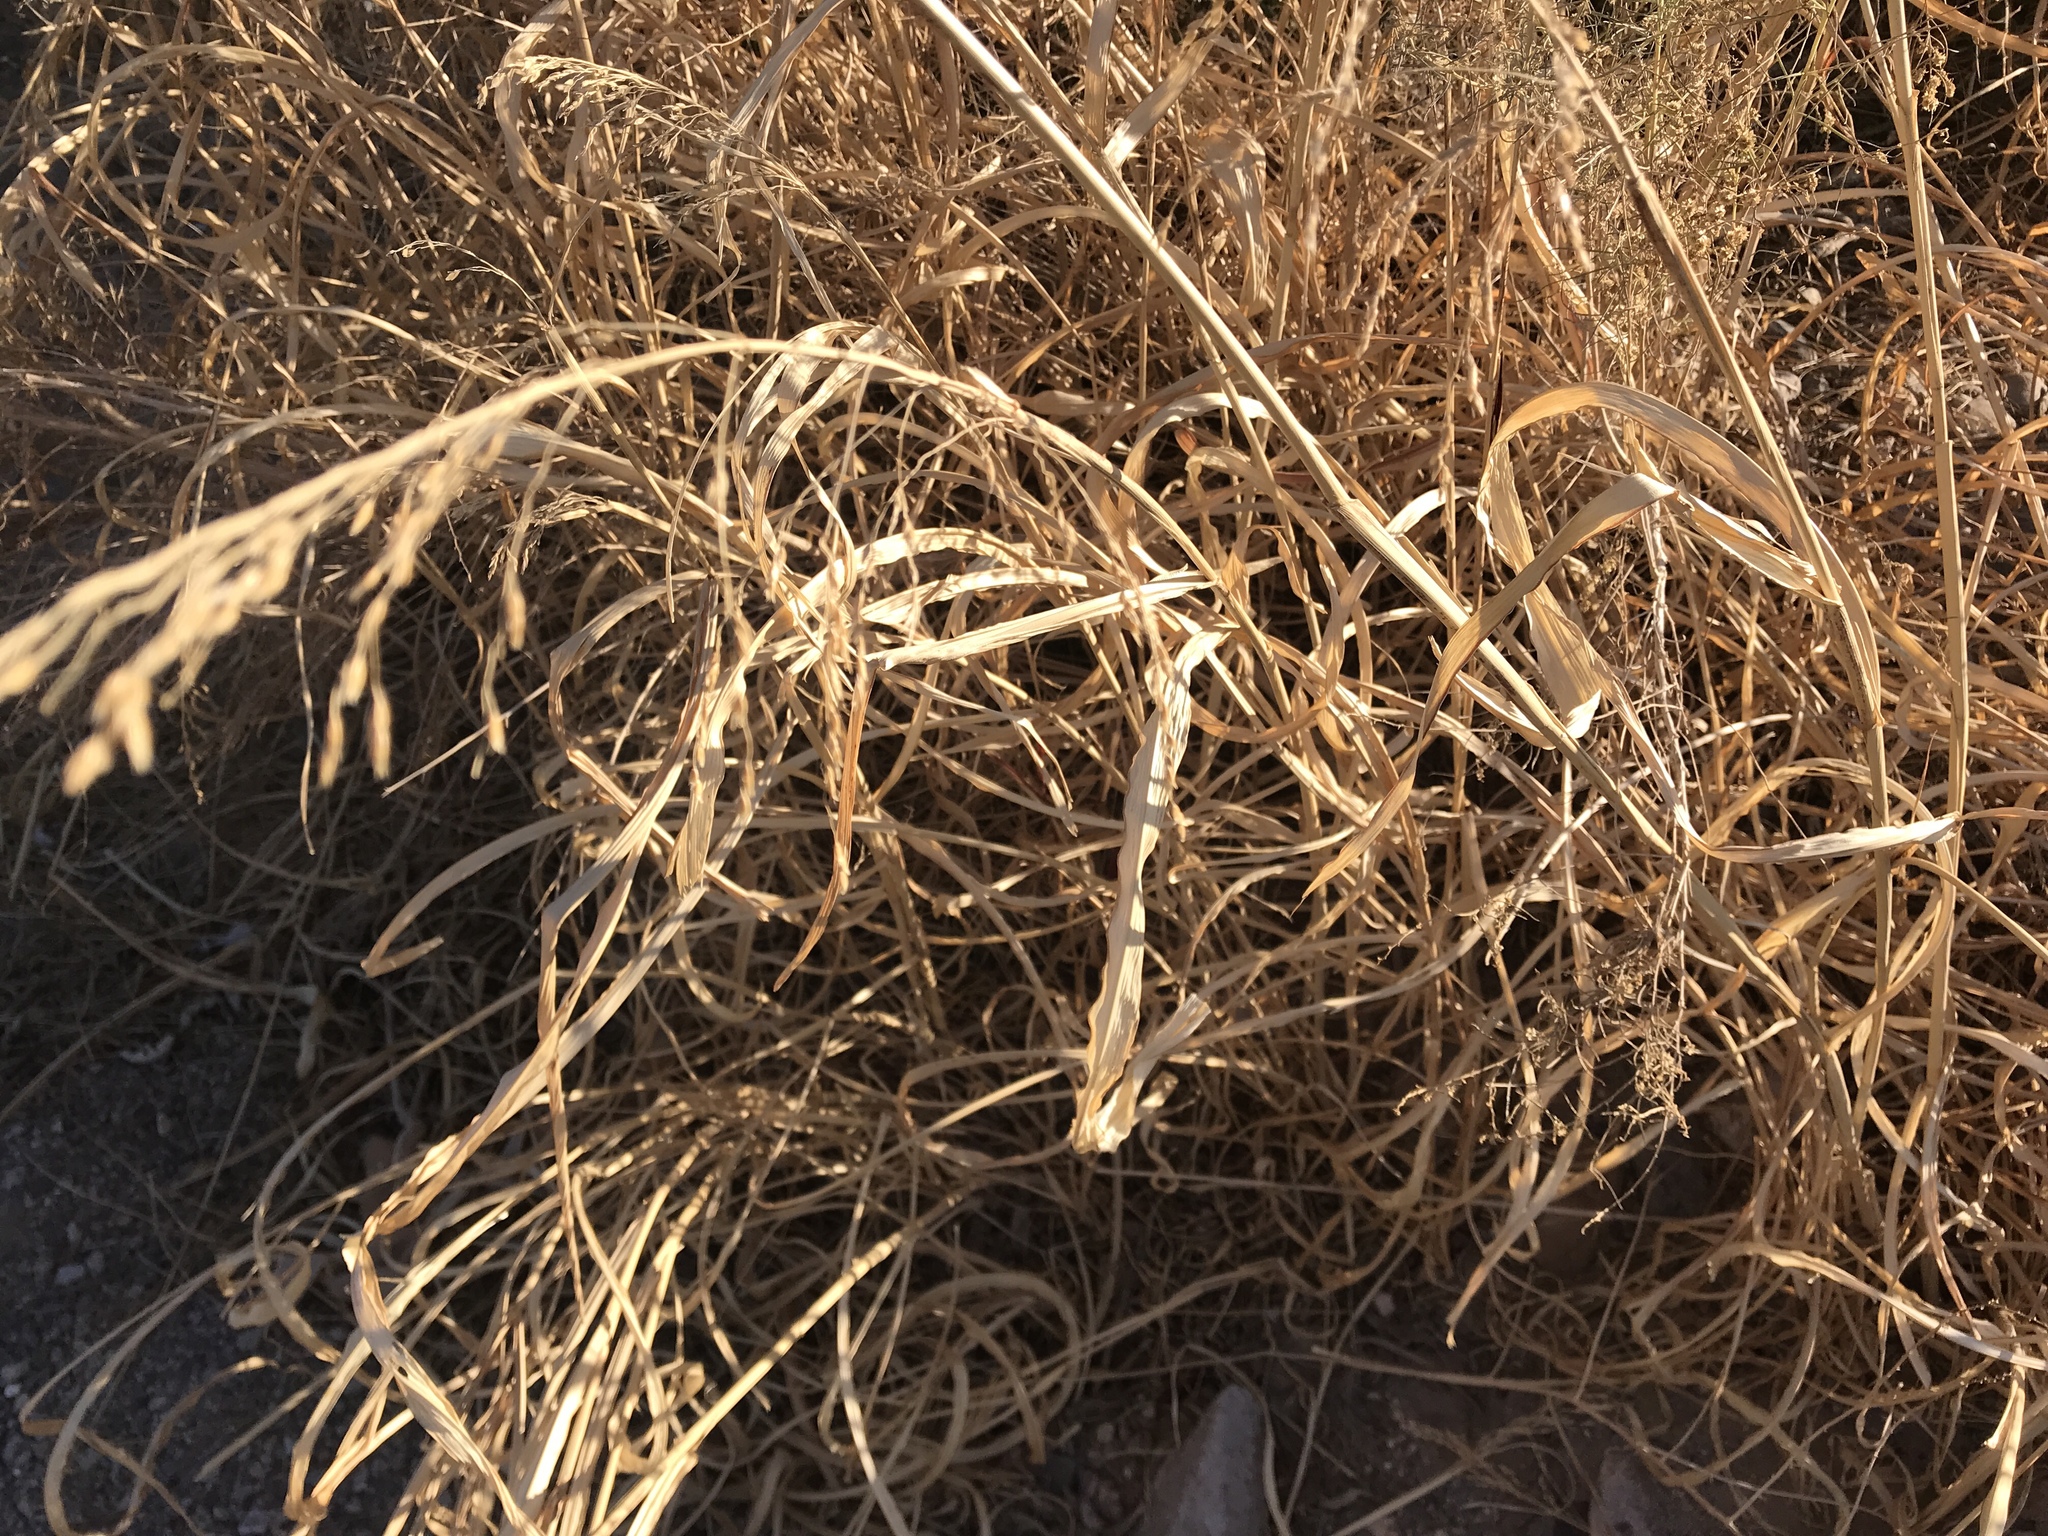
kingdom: Plantae
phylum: Tracheophyta
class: Liliopsida
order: Poales
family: Poaceae
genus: Sorghum
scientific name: Sorghum halepense
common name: Johnson-grass
